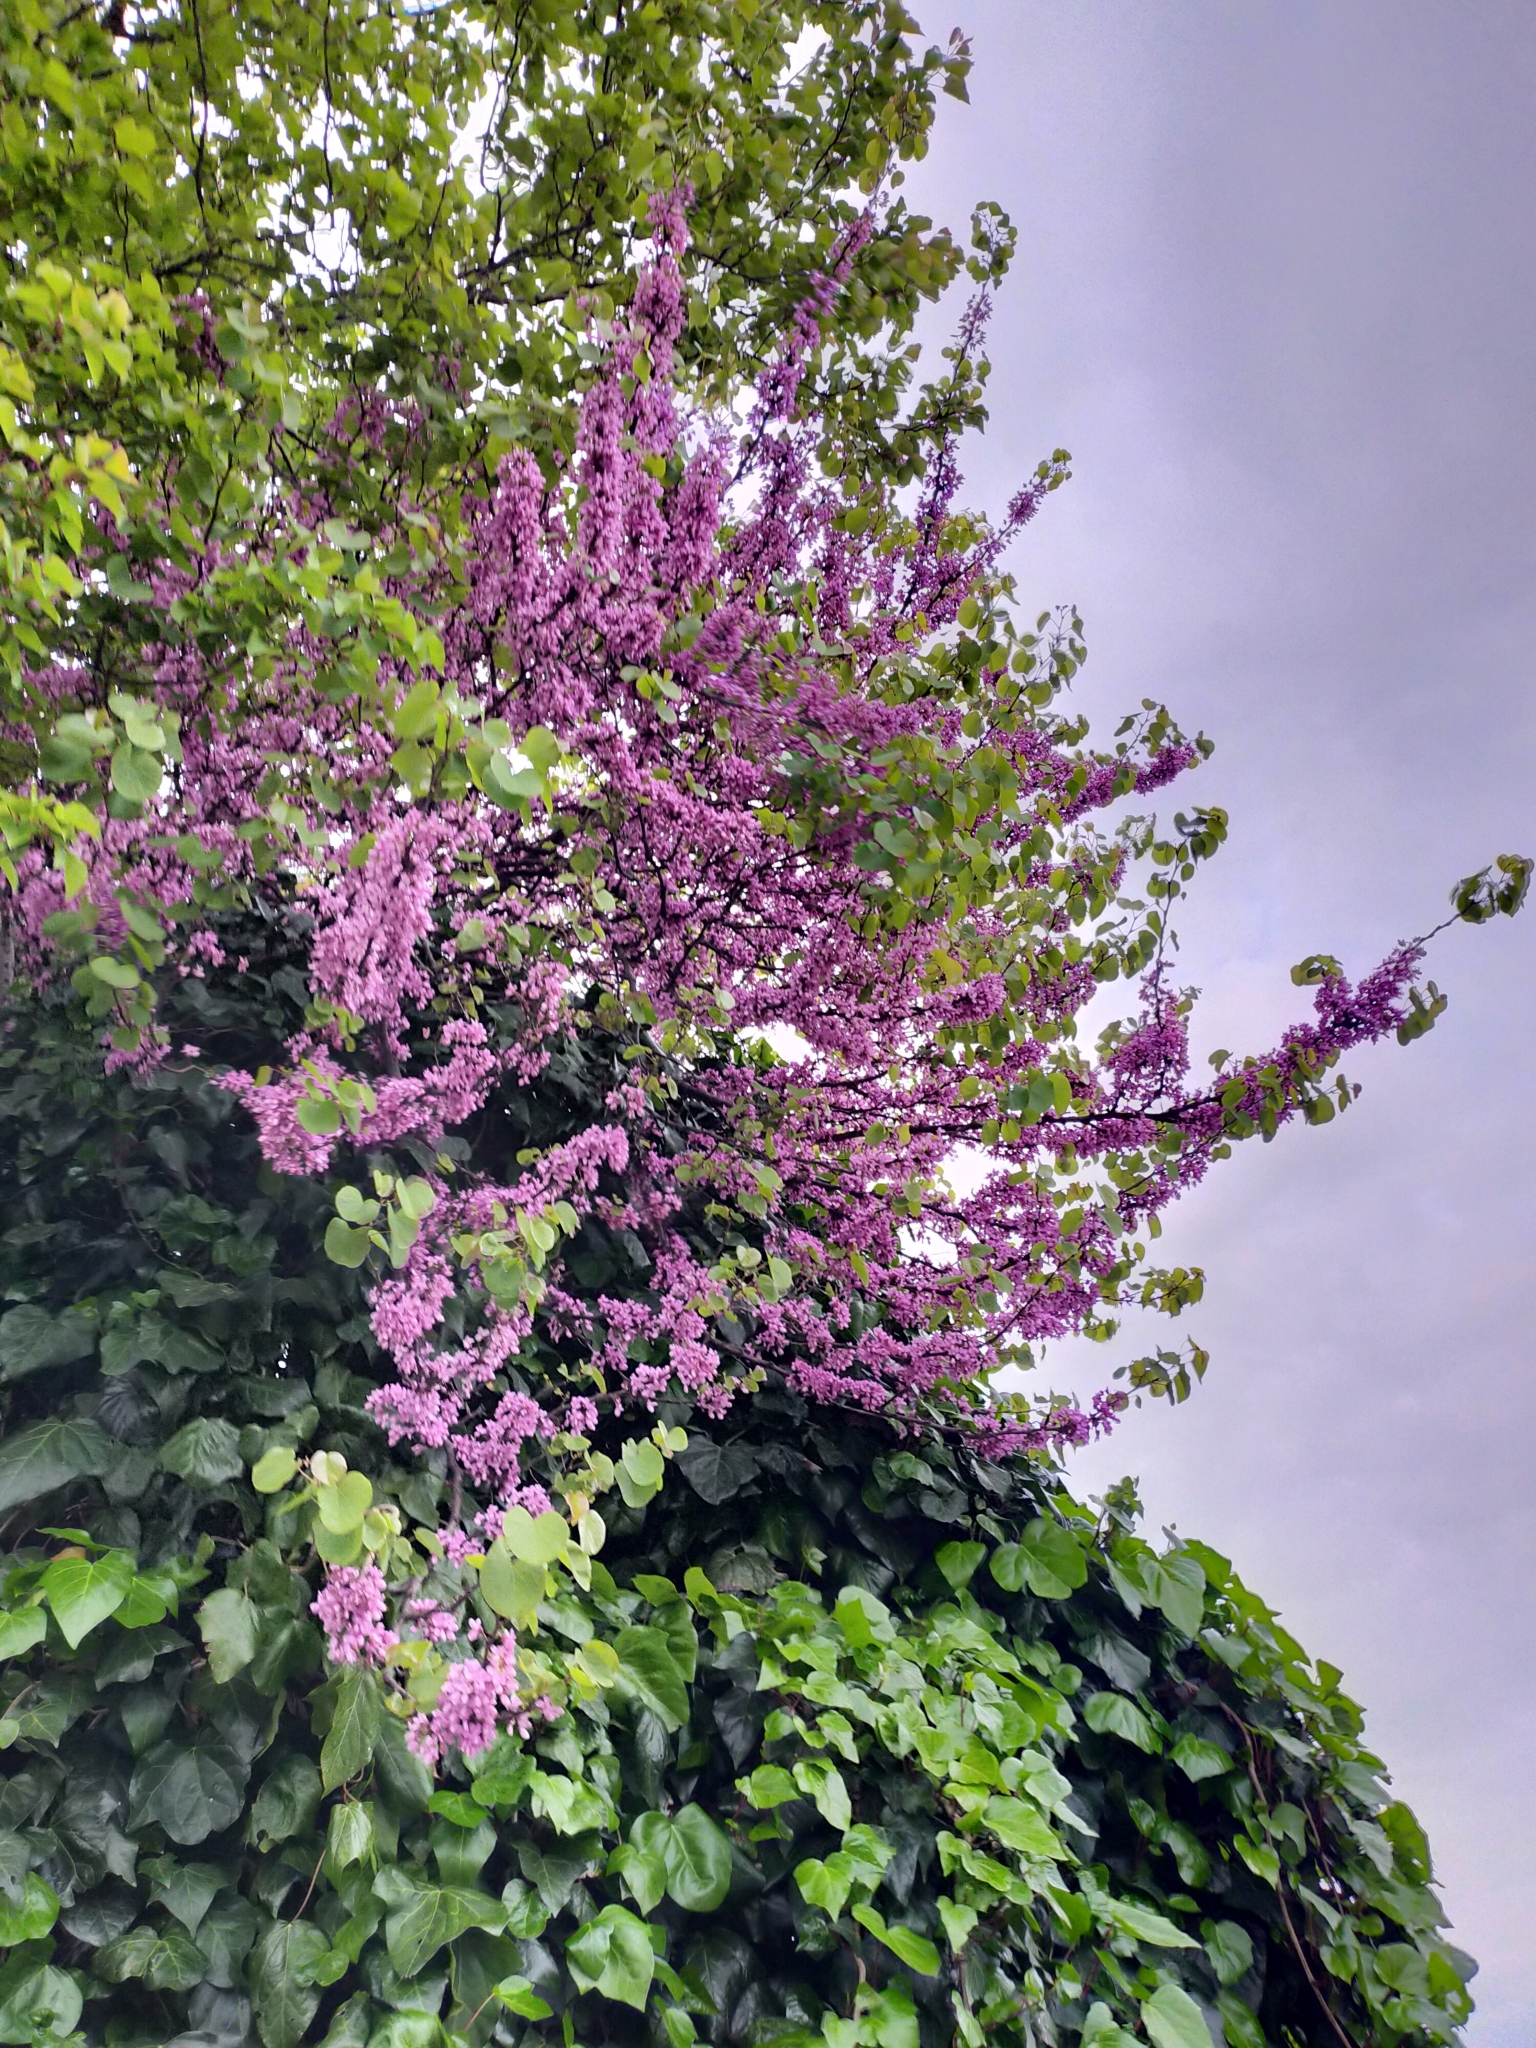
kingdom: Plantae
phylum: Tracheophyta
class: Magnoliopsida
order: Fabales
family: Fabaceae
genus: Cercis
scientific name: Cercis siliquastrum
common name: Judas tree
